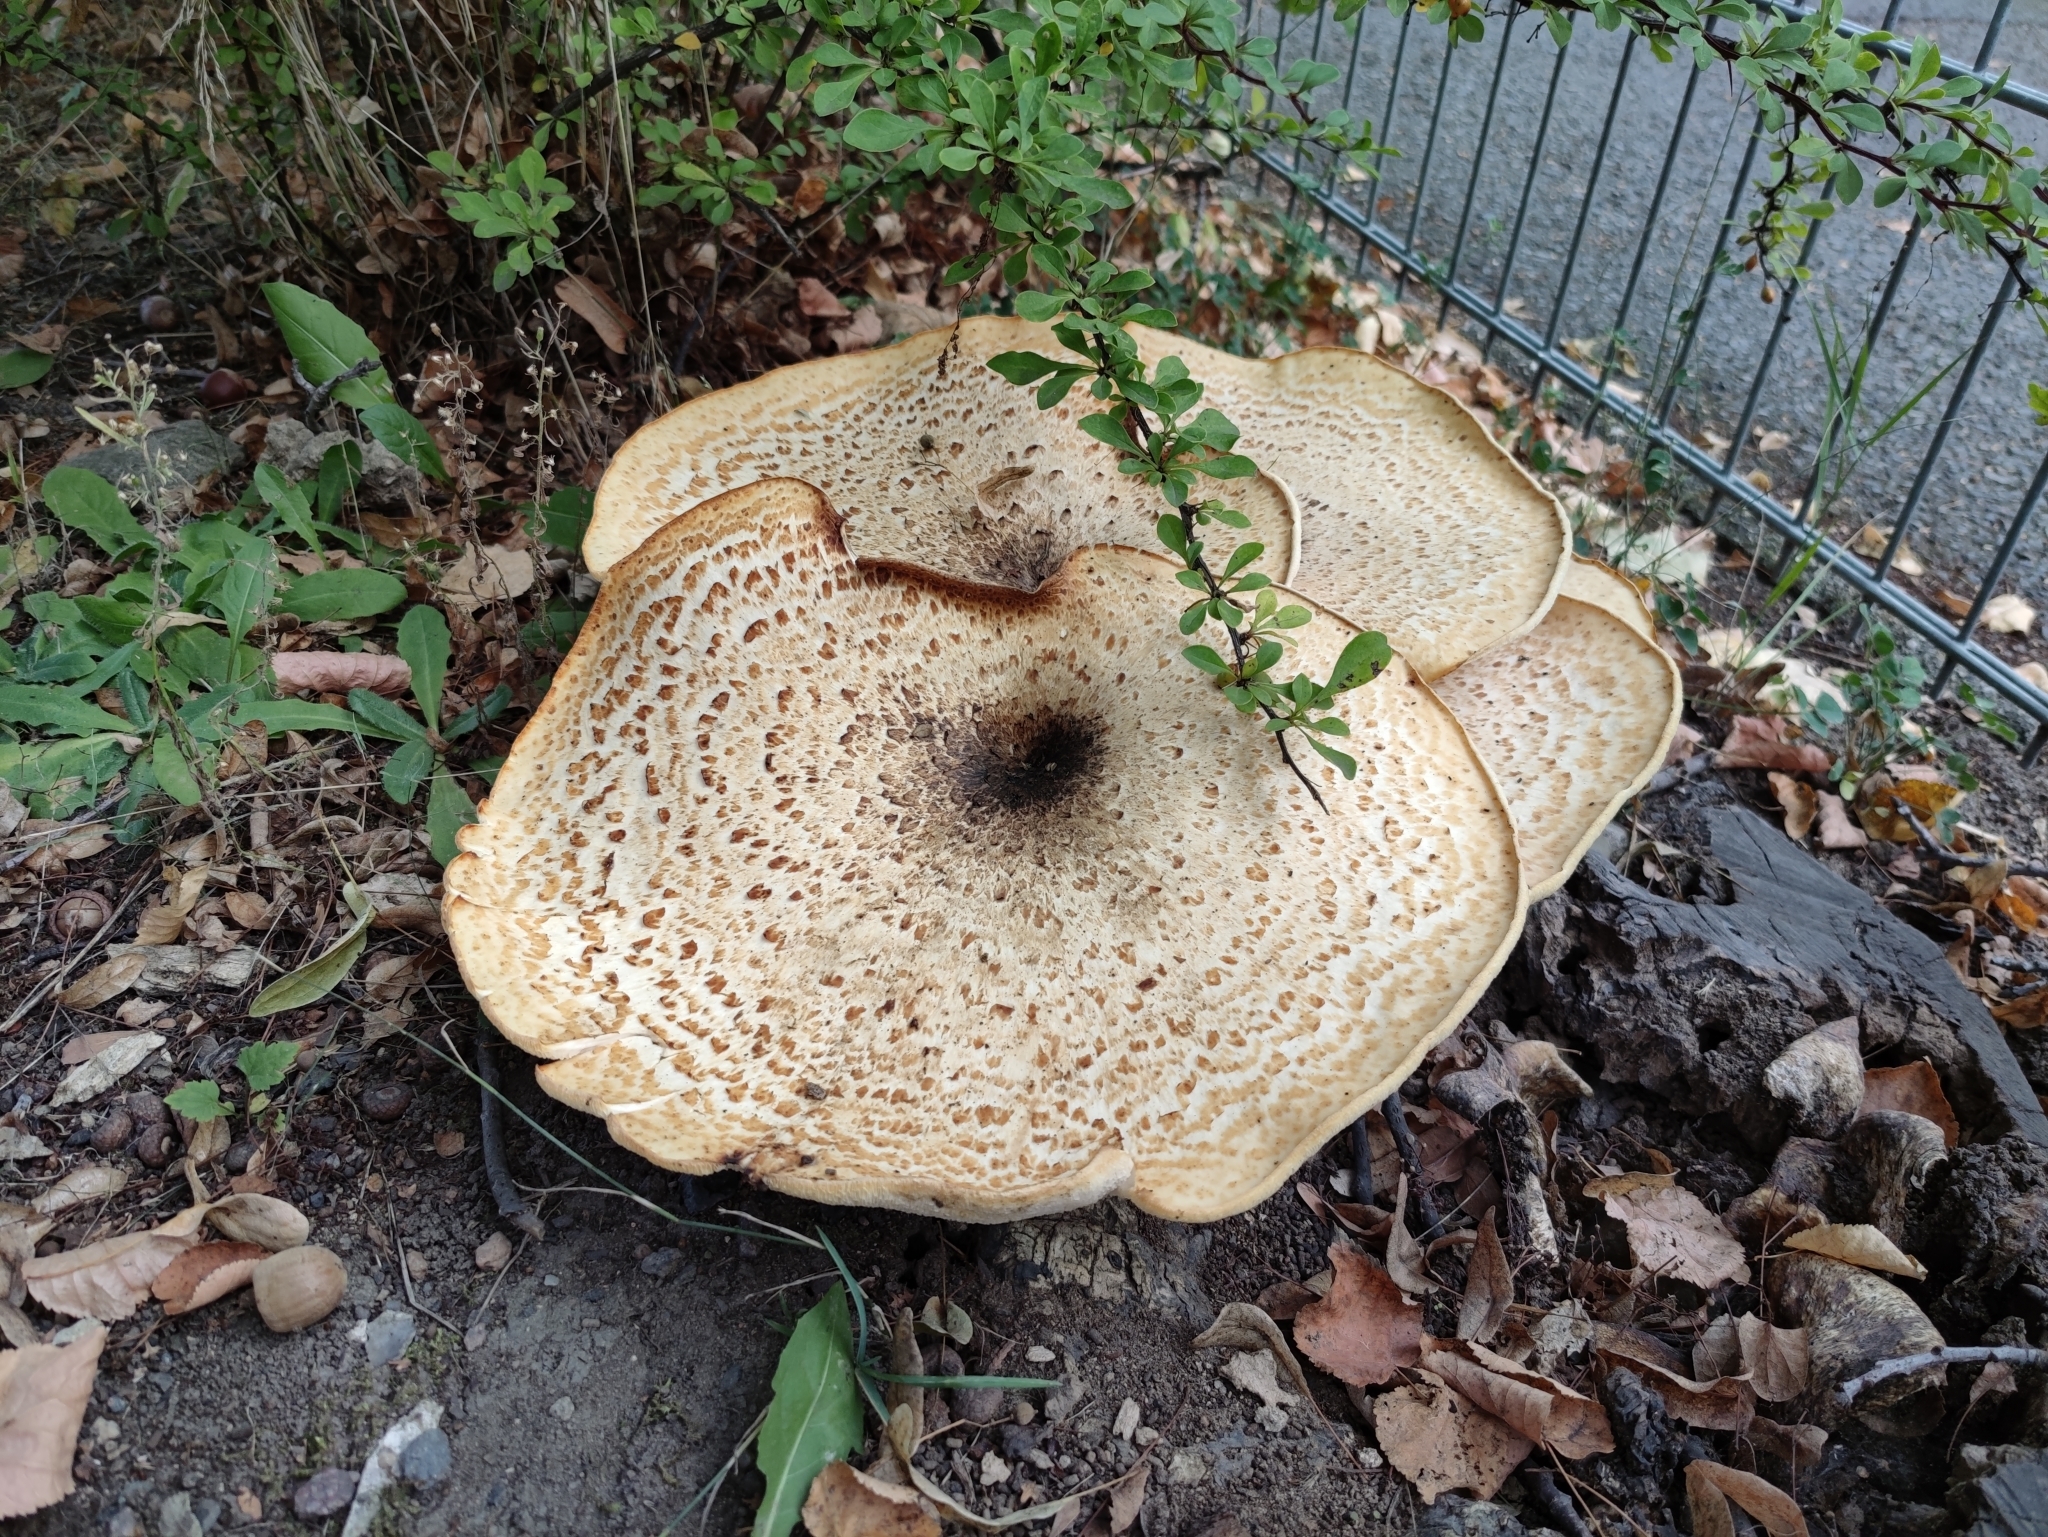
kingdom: Fungi
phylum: Basidiomycota
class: Agaricomycetes
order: Polyporales
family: Polyporaceae
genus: Cerioporus
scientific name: Cerioporus squamosus
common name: Dryad's saddle
